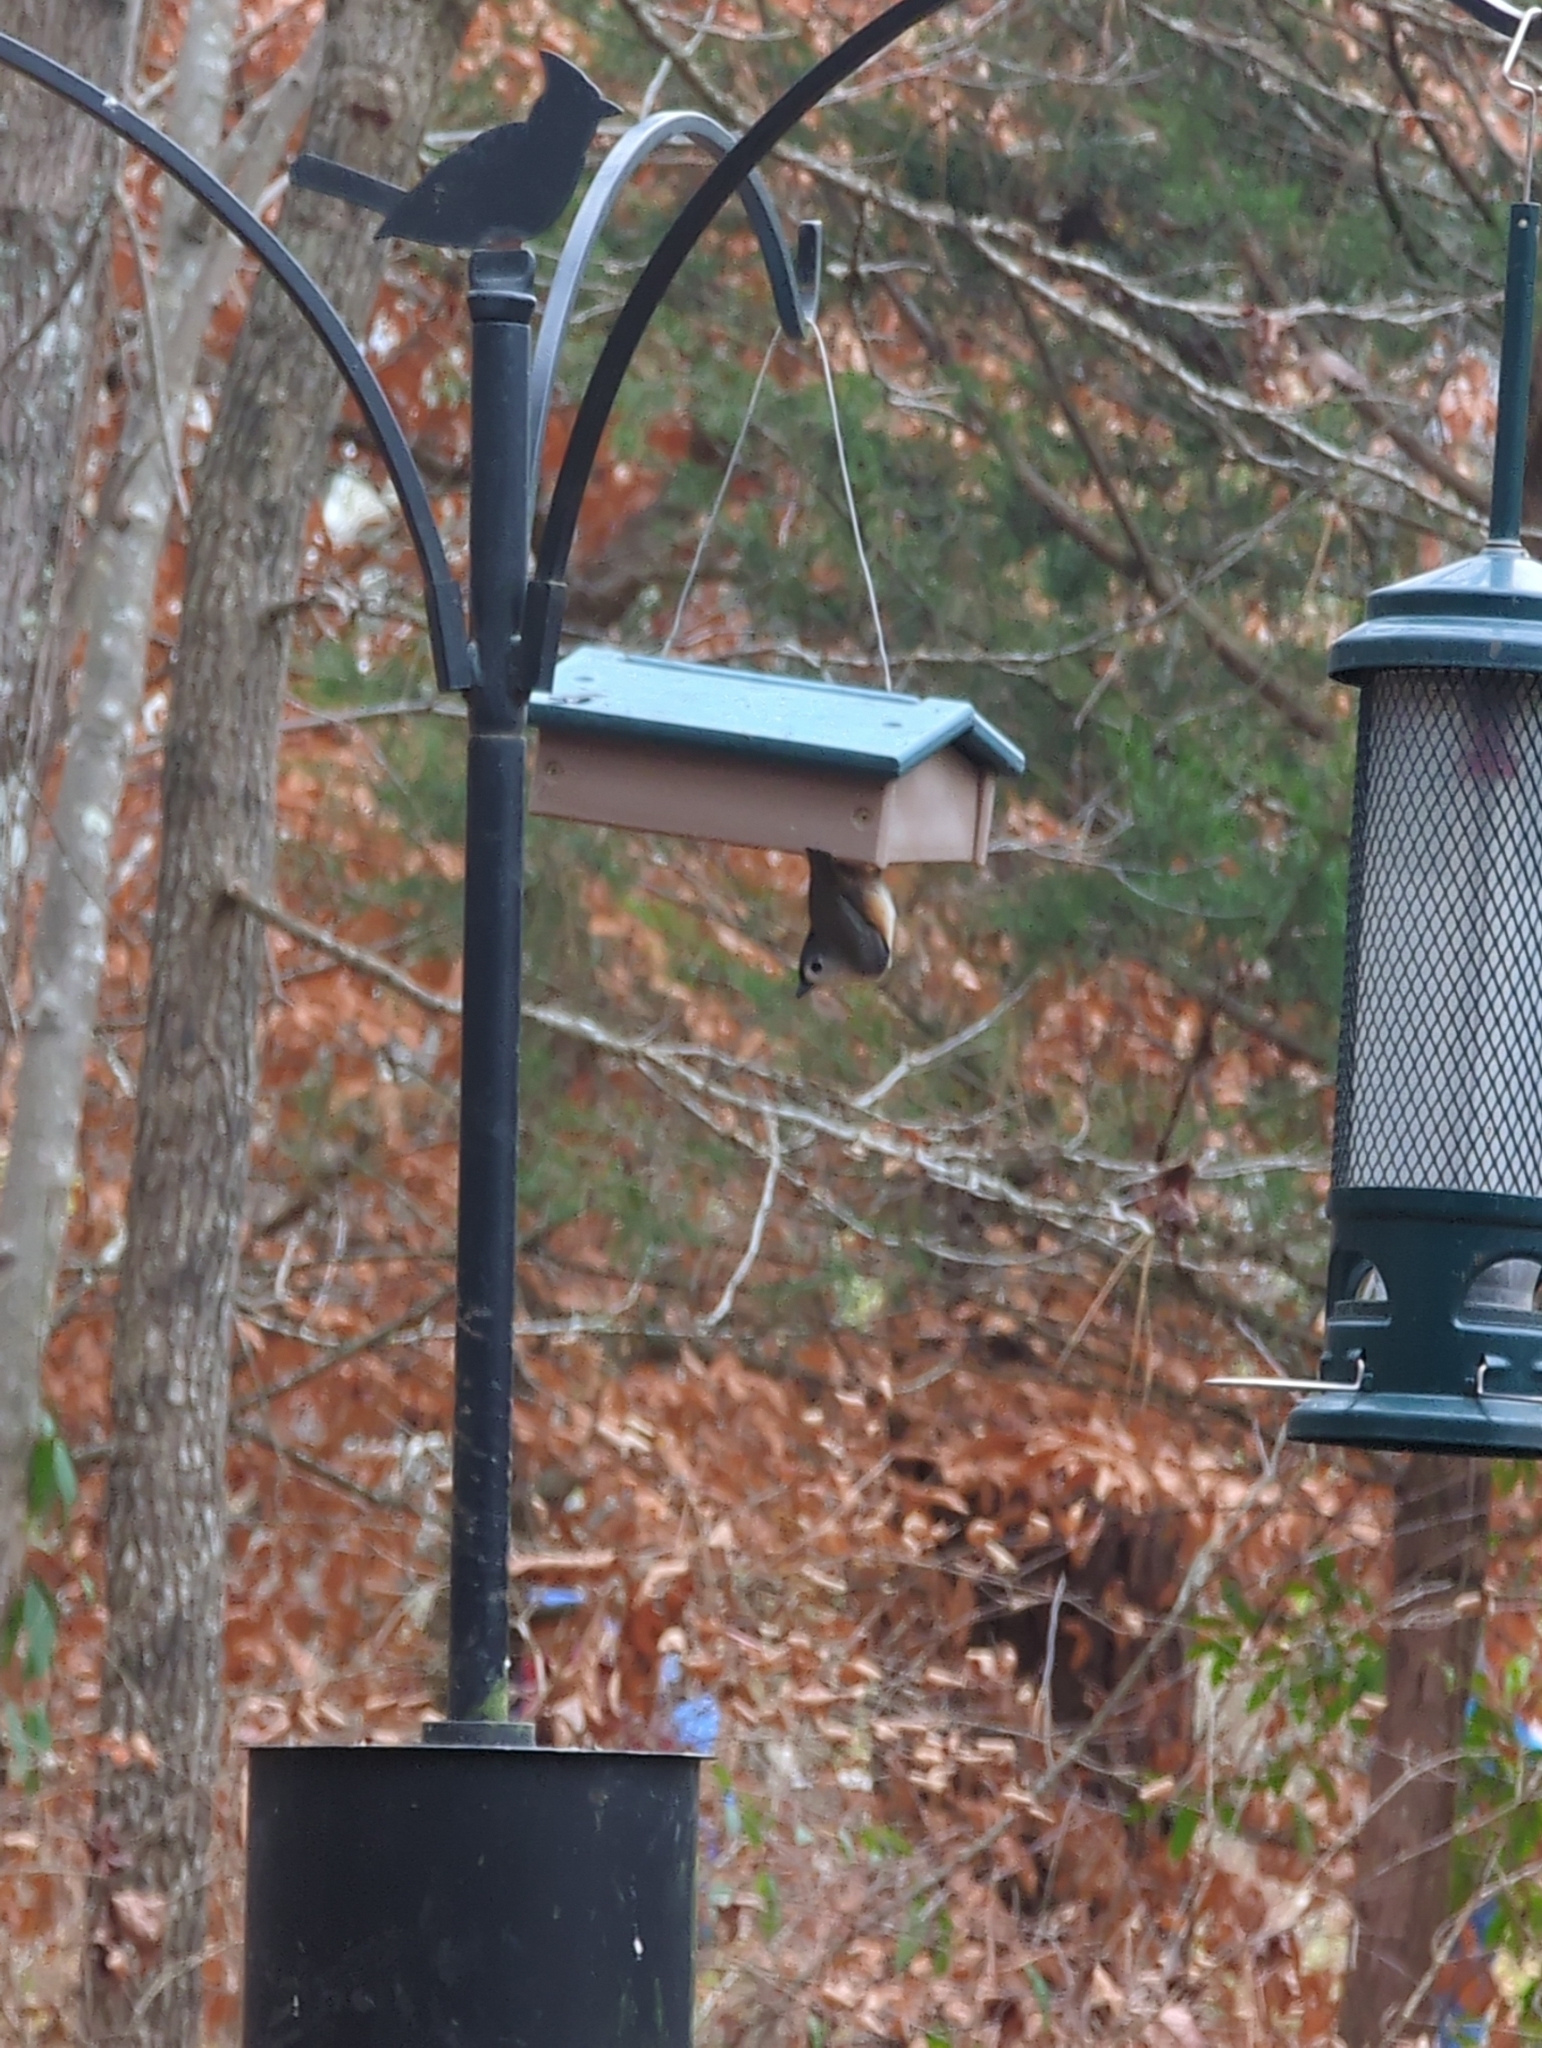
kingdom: Animalia
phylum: Chordata
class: Aves
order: Passeriformes
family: Paridae
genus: Baeolophus
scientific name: Baeolophus bicolor
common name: Tufted titmouse
